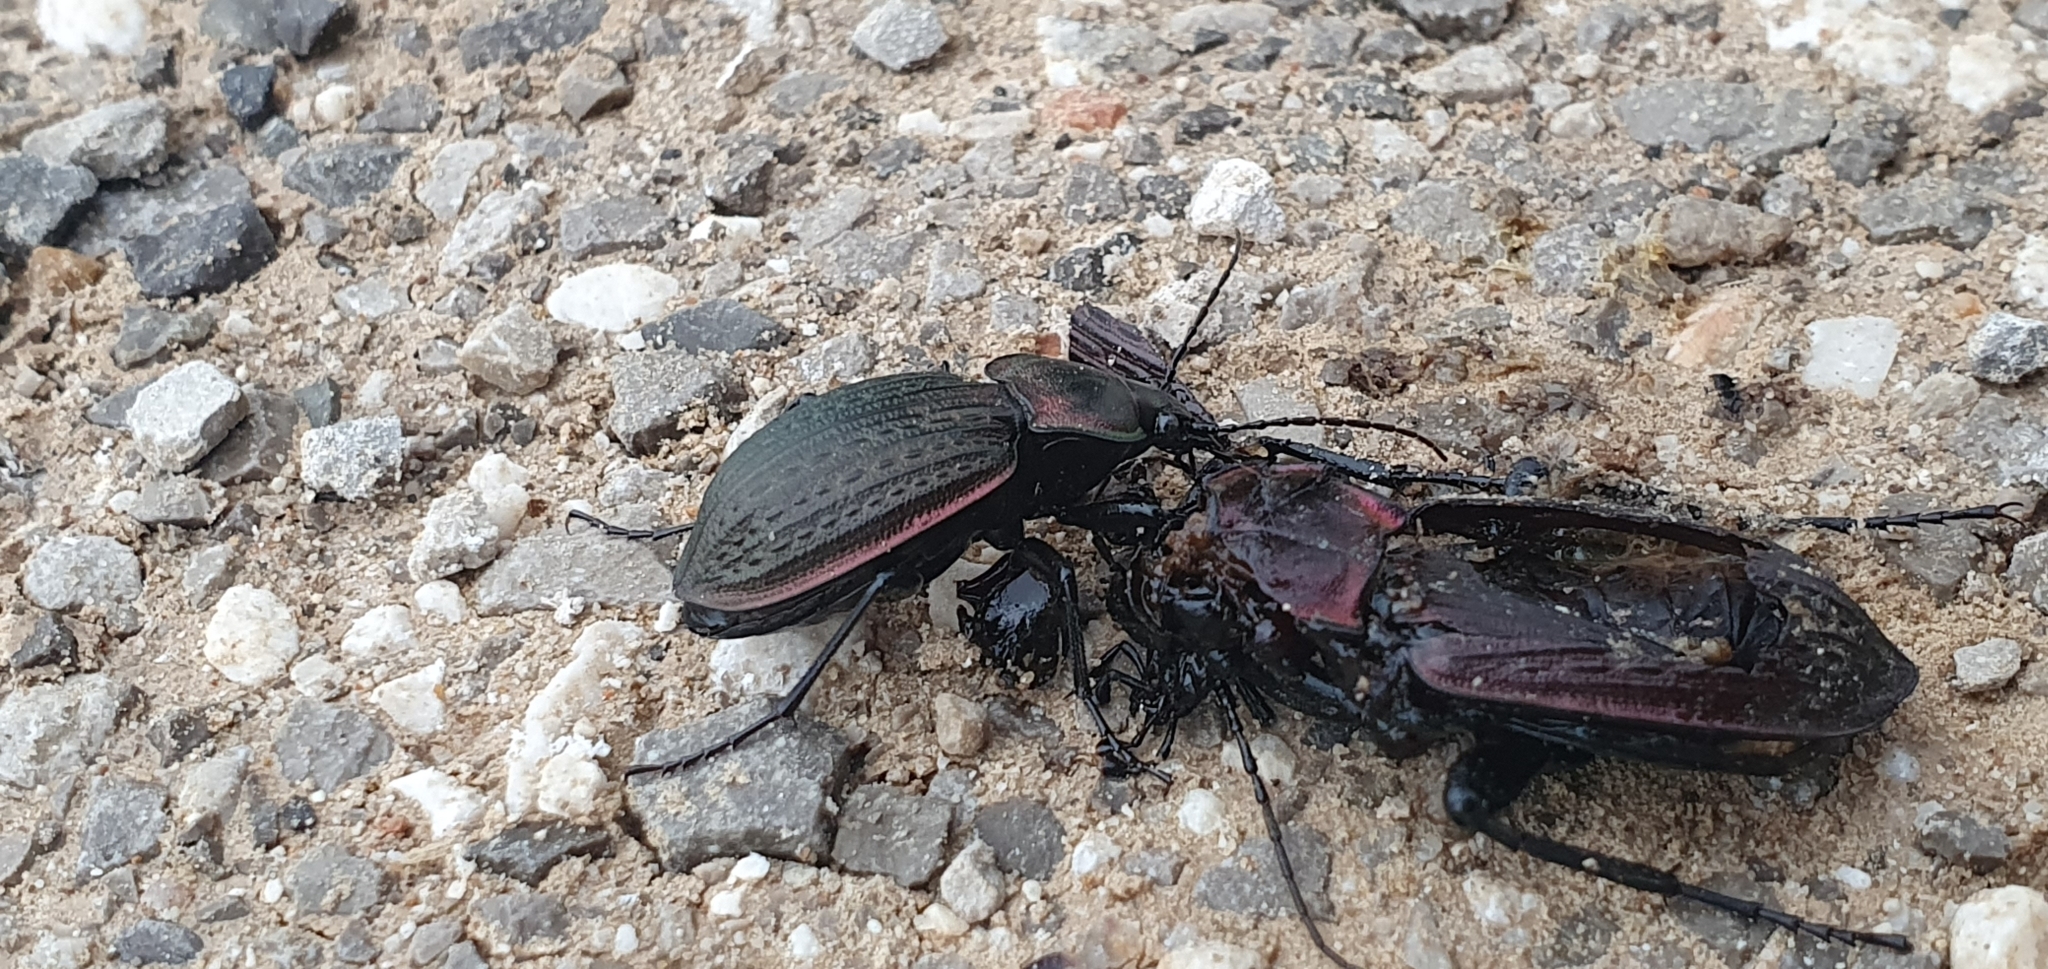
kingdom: Animalia
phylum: Arthropoda
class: Insecta
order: Coleoptera
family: Carabidae
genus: Carabus
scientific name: Carabus faminii
